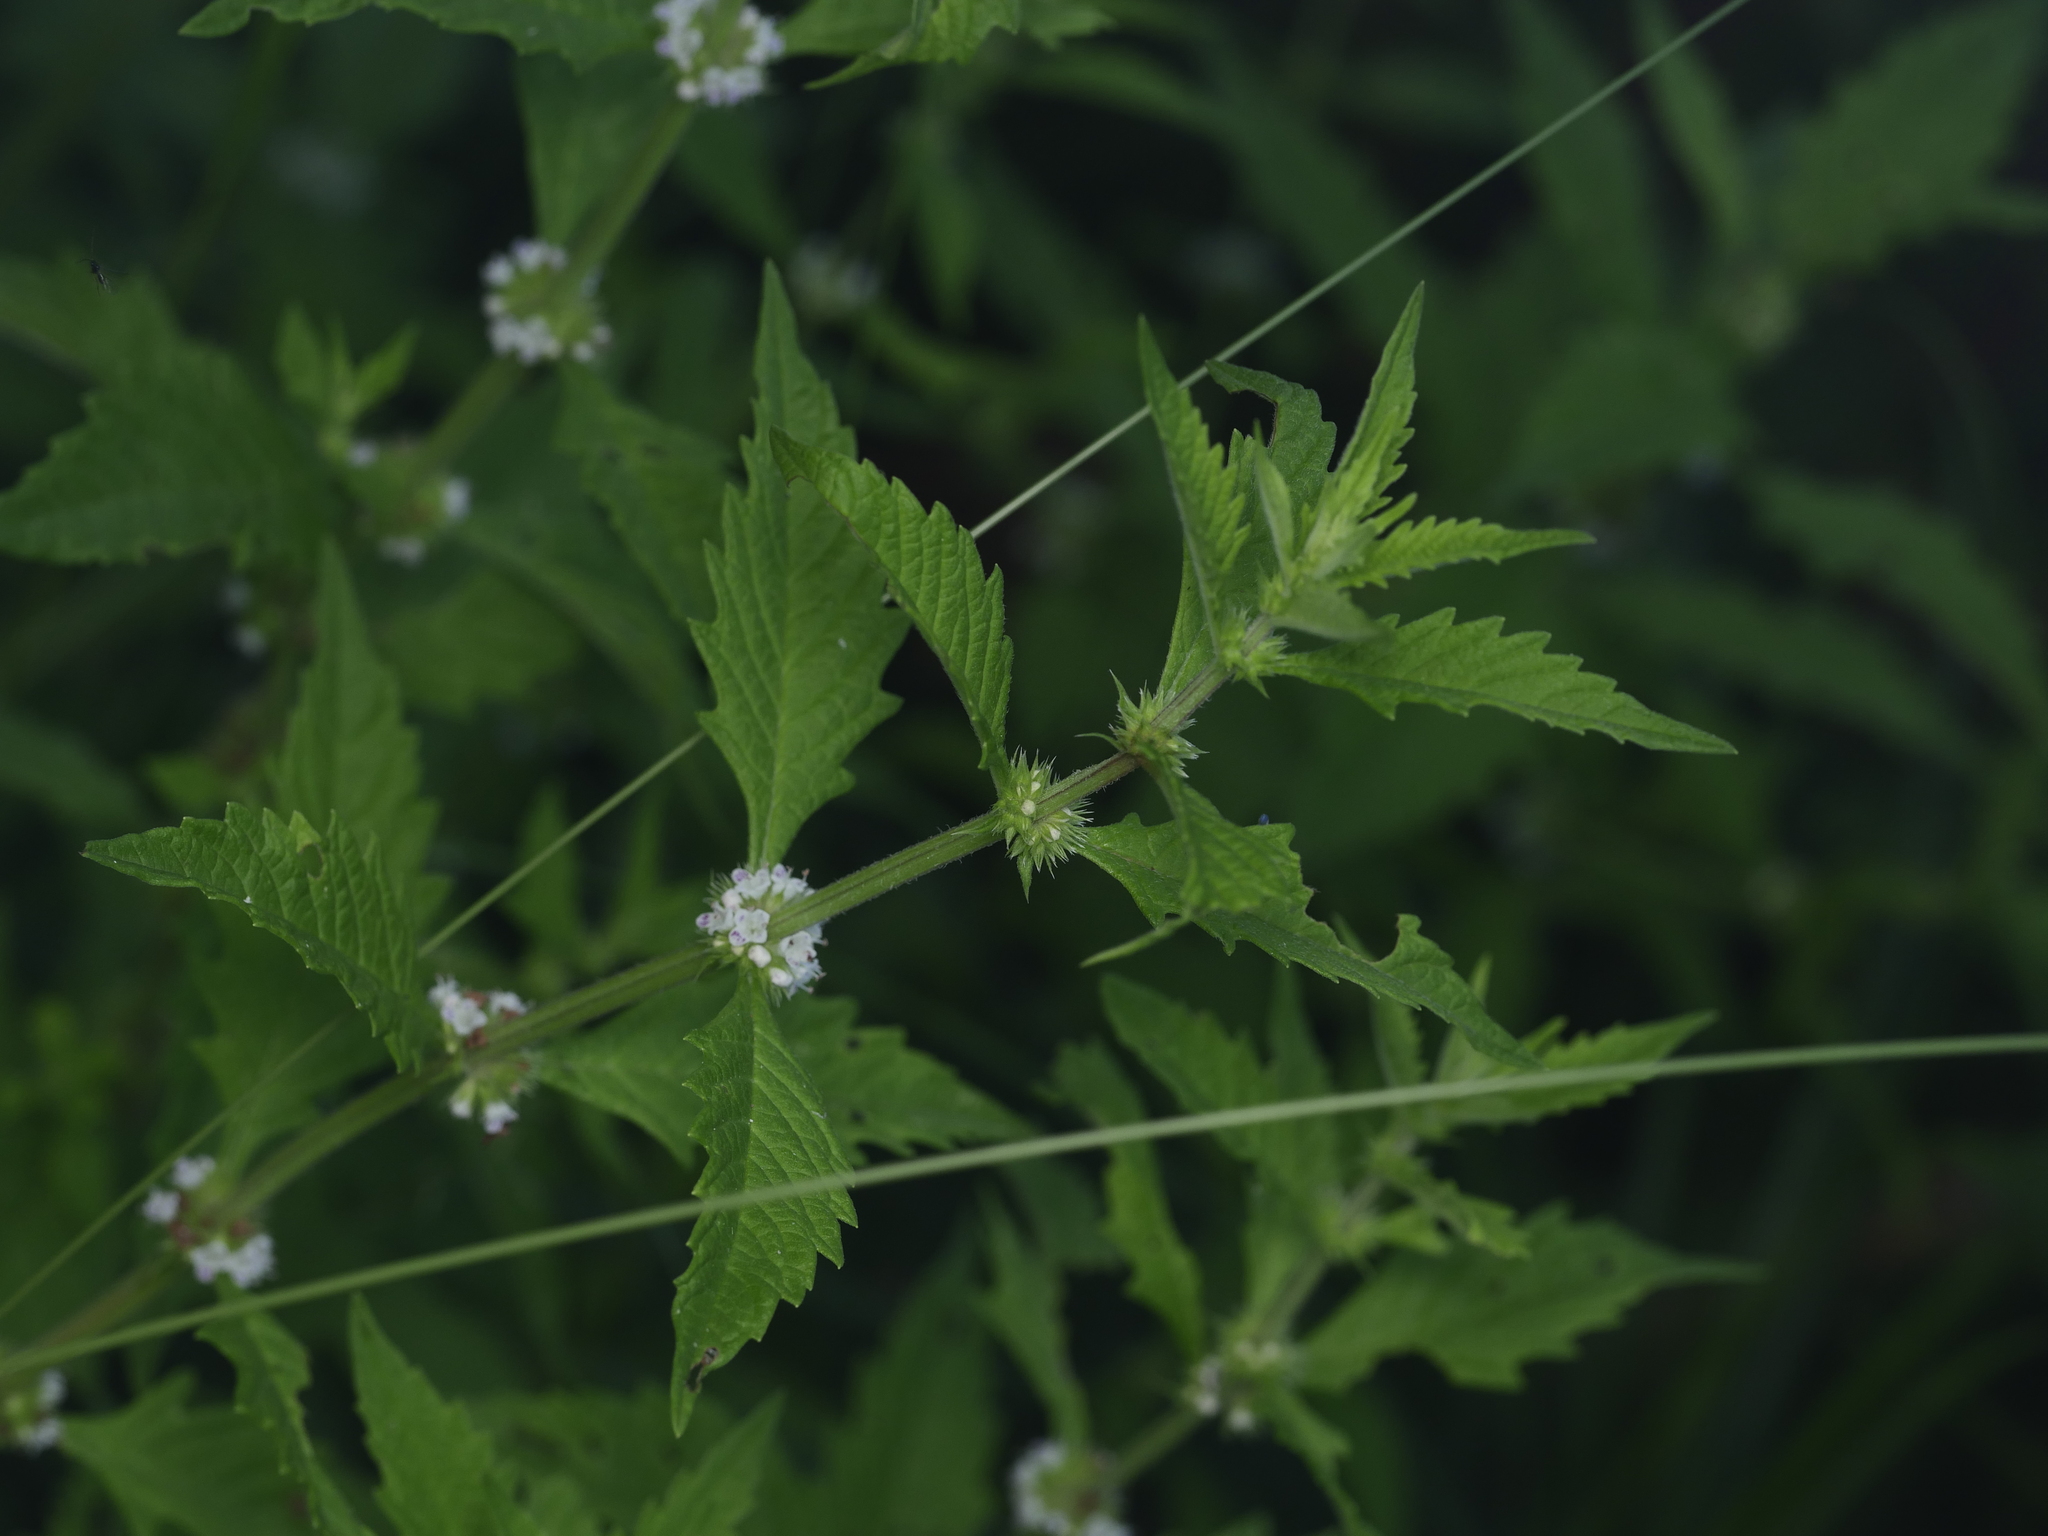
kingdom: Plantae
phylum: Tracheophyta
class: Magnoliopsida
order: Lamiales
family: Lamiaceae
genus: Lycopus
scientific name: Lycopus europaeus
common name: European bugleweed
